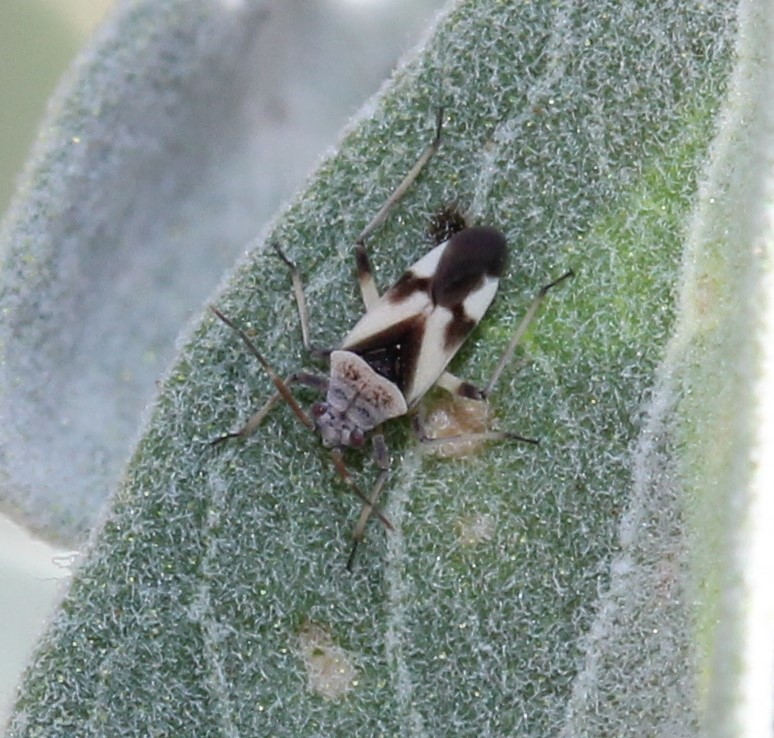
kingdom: Animalia
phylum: Arthropoda
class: Insecta
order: Hemiptera
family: Miridae
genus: Semium
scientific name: Semium subglabrum
